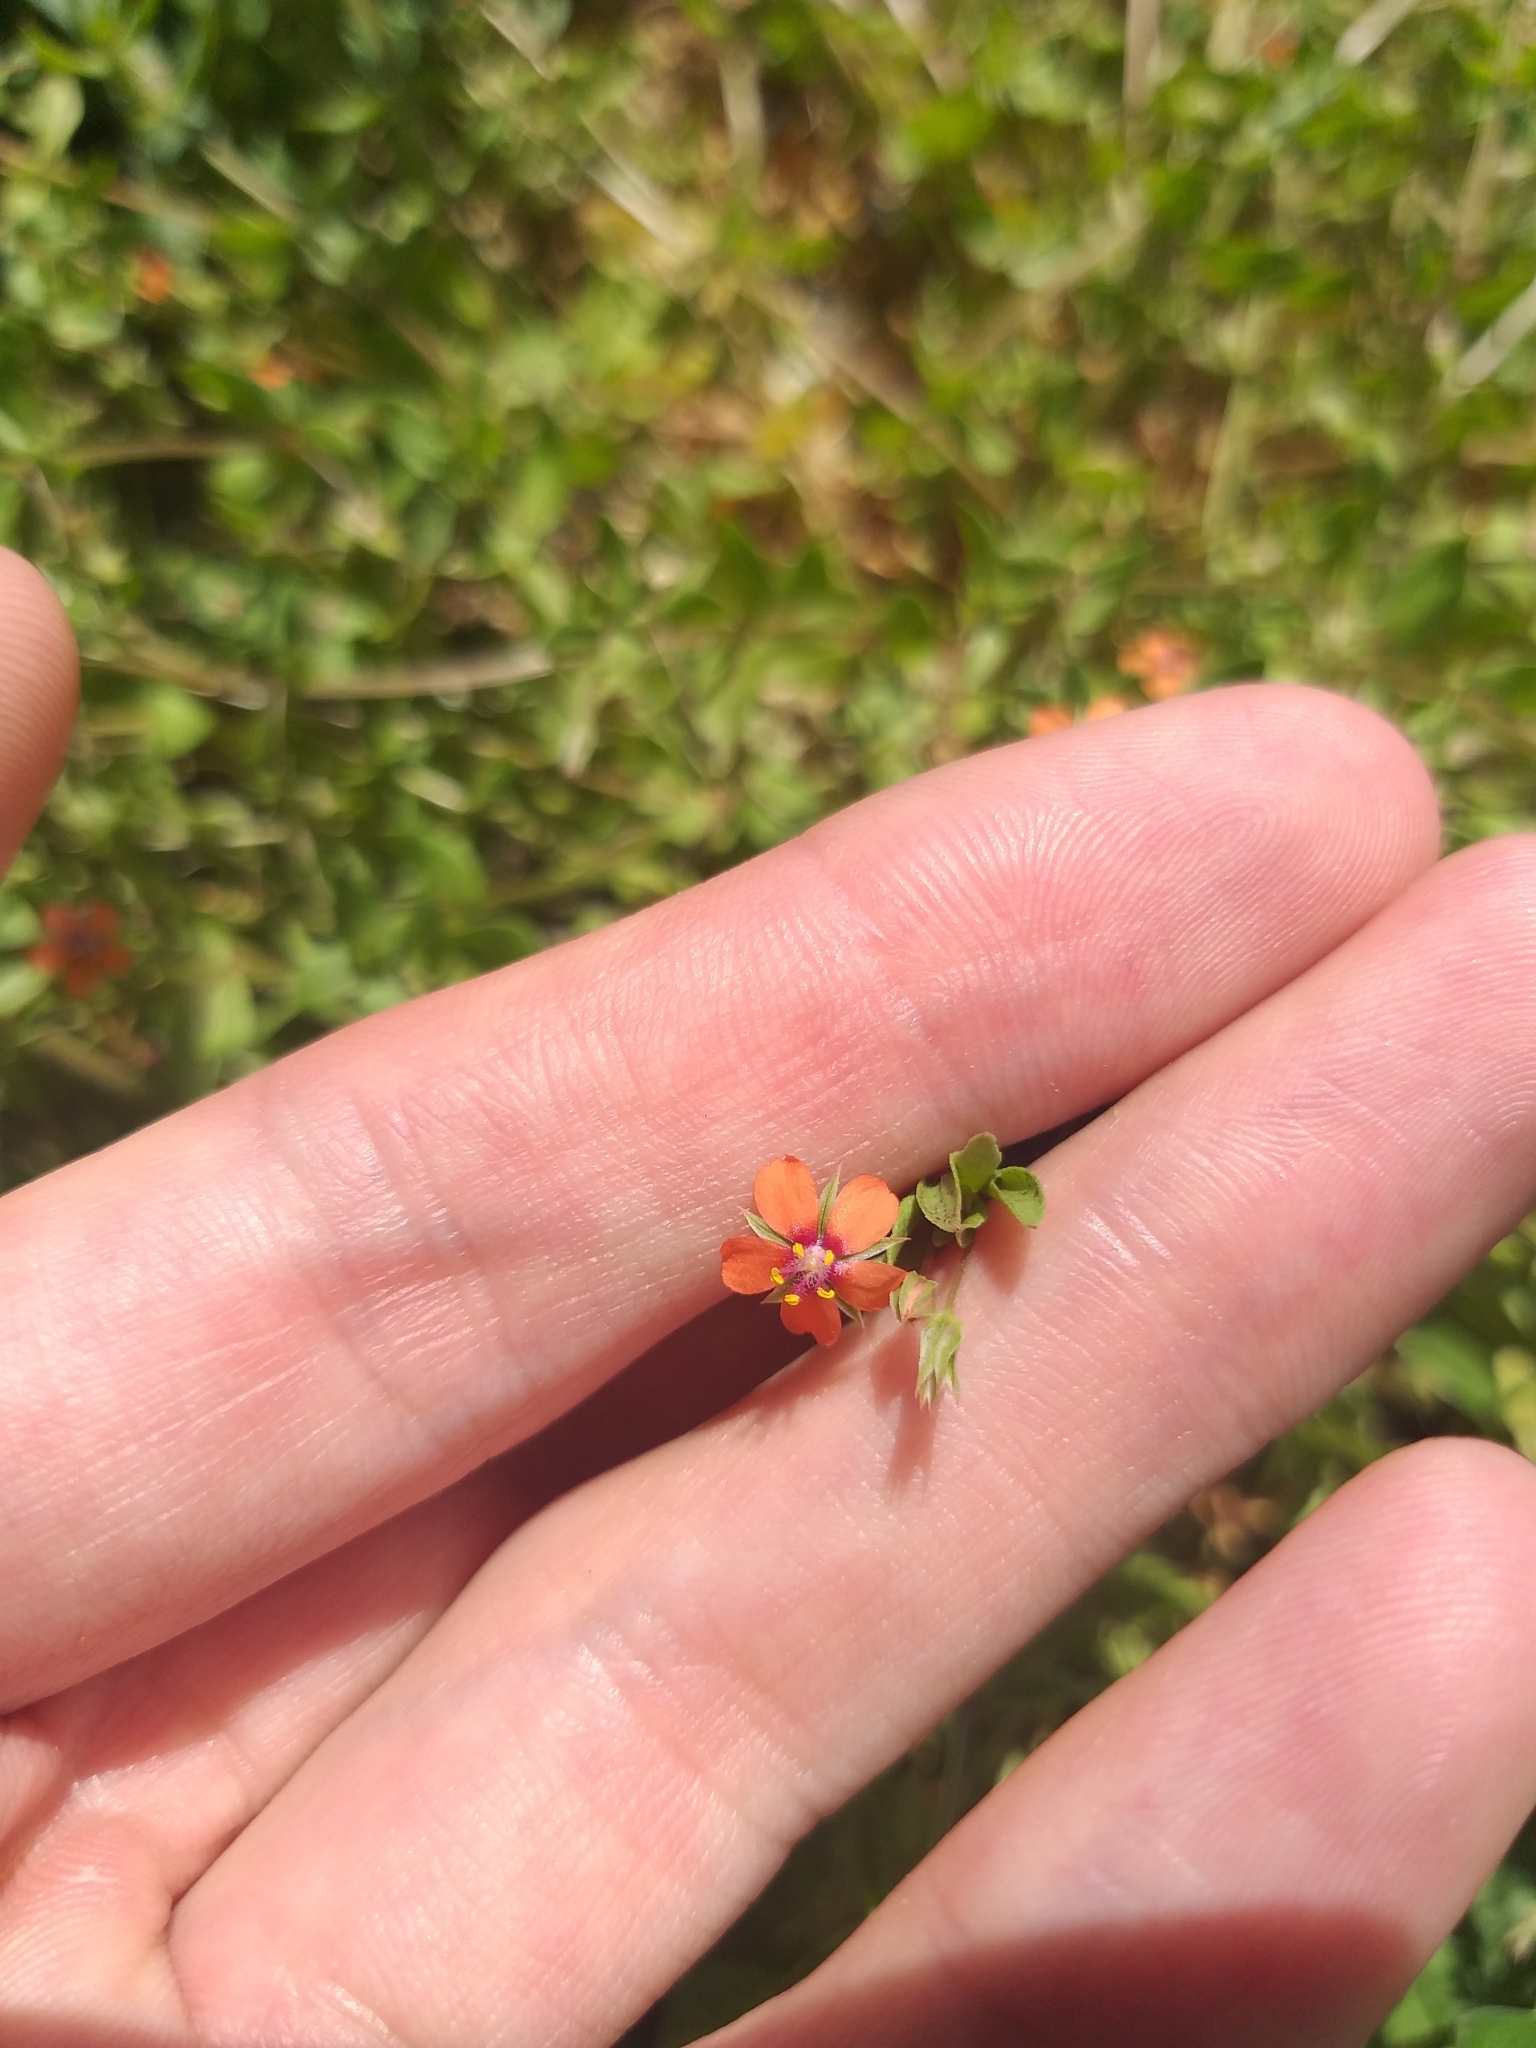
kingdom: Plantae
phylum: Tracheophyta
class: Magnoliopsida
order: Ericales
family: Primulaceae
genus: Lysimachia
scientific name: Lysimachia arvensis
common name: Scarlet pimpernel
